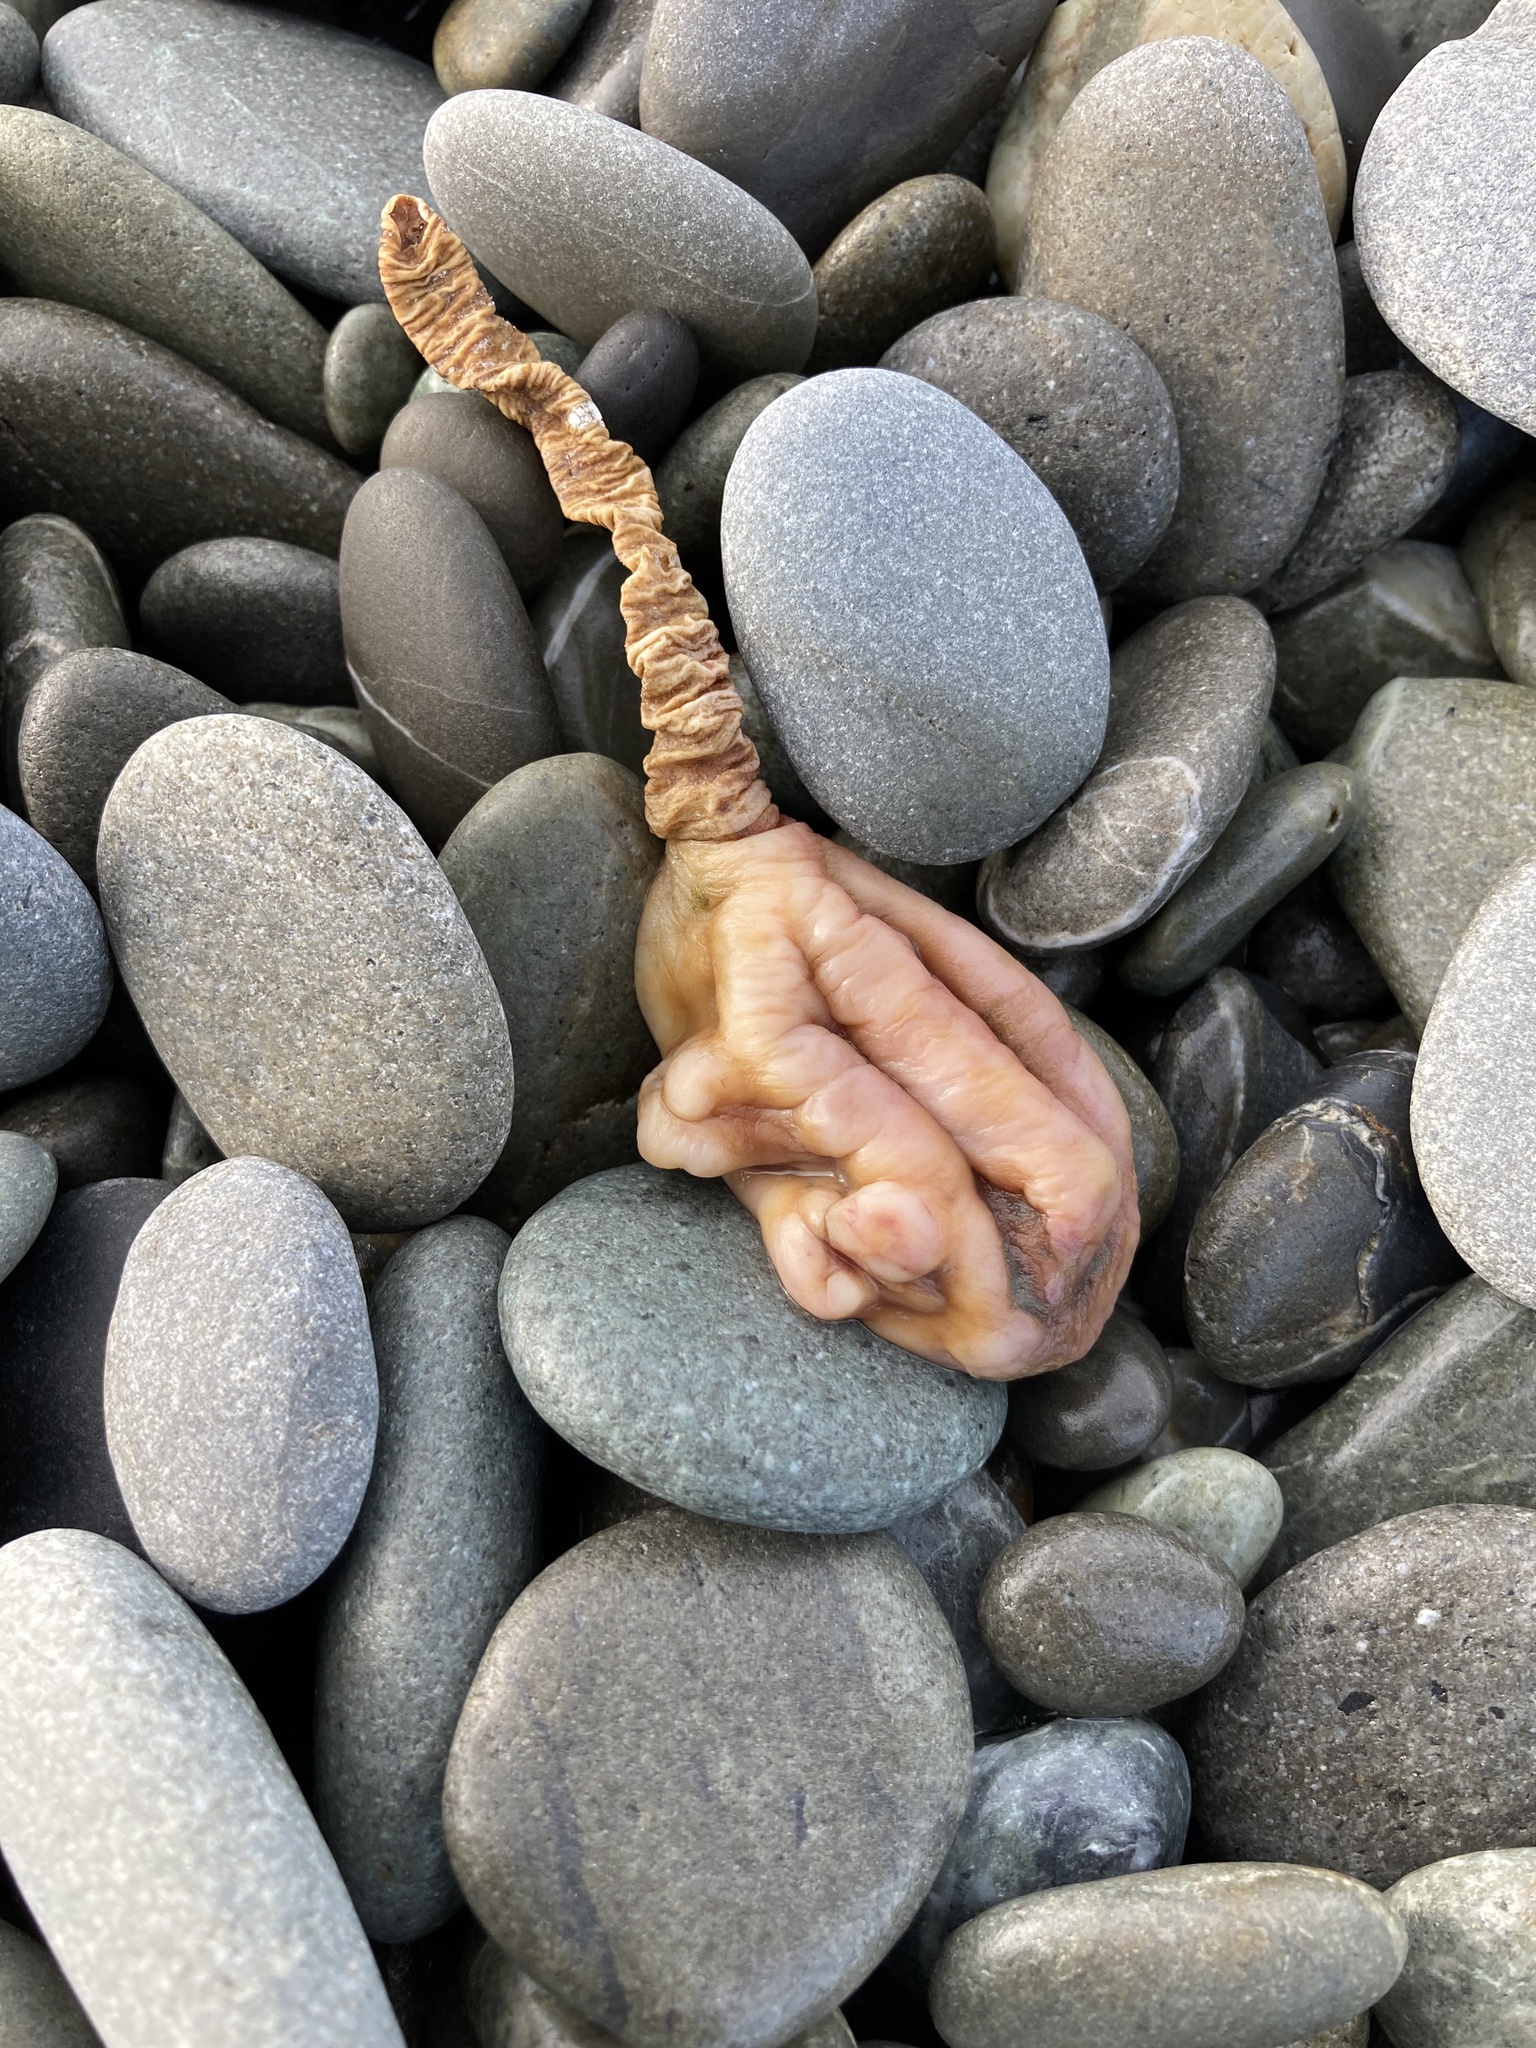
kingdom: Animalia
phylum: Chordata
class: Ascidiacea
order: Stolidobranchia
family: Pyuridae
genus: Pyura
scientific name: Pyura pachydermatina
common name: Sea tulip
